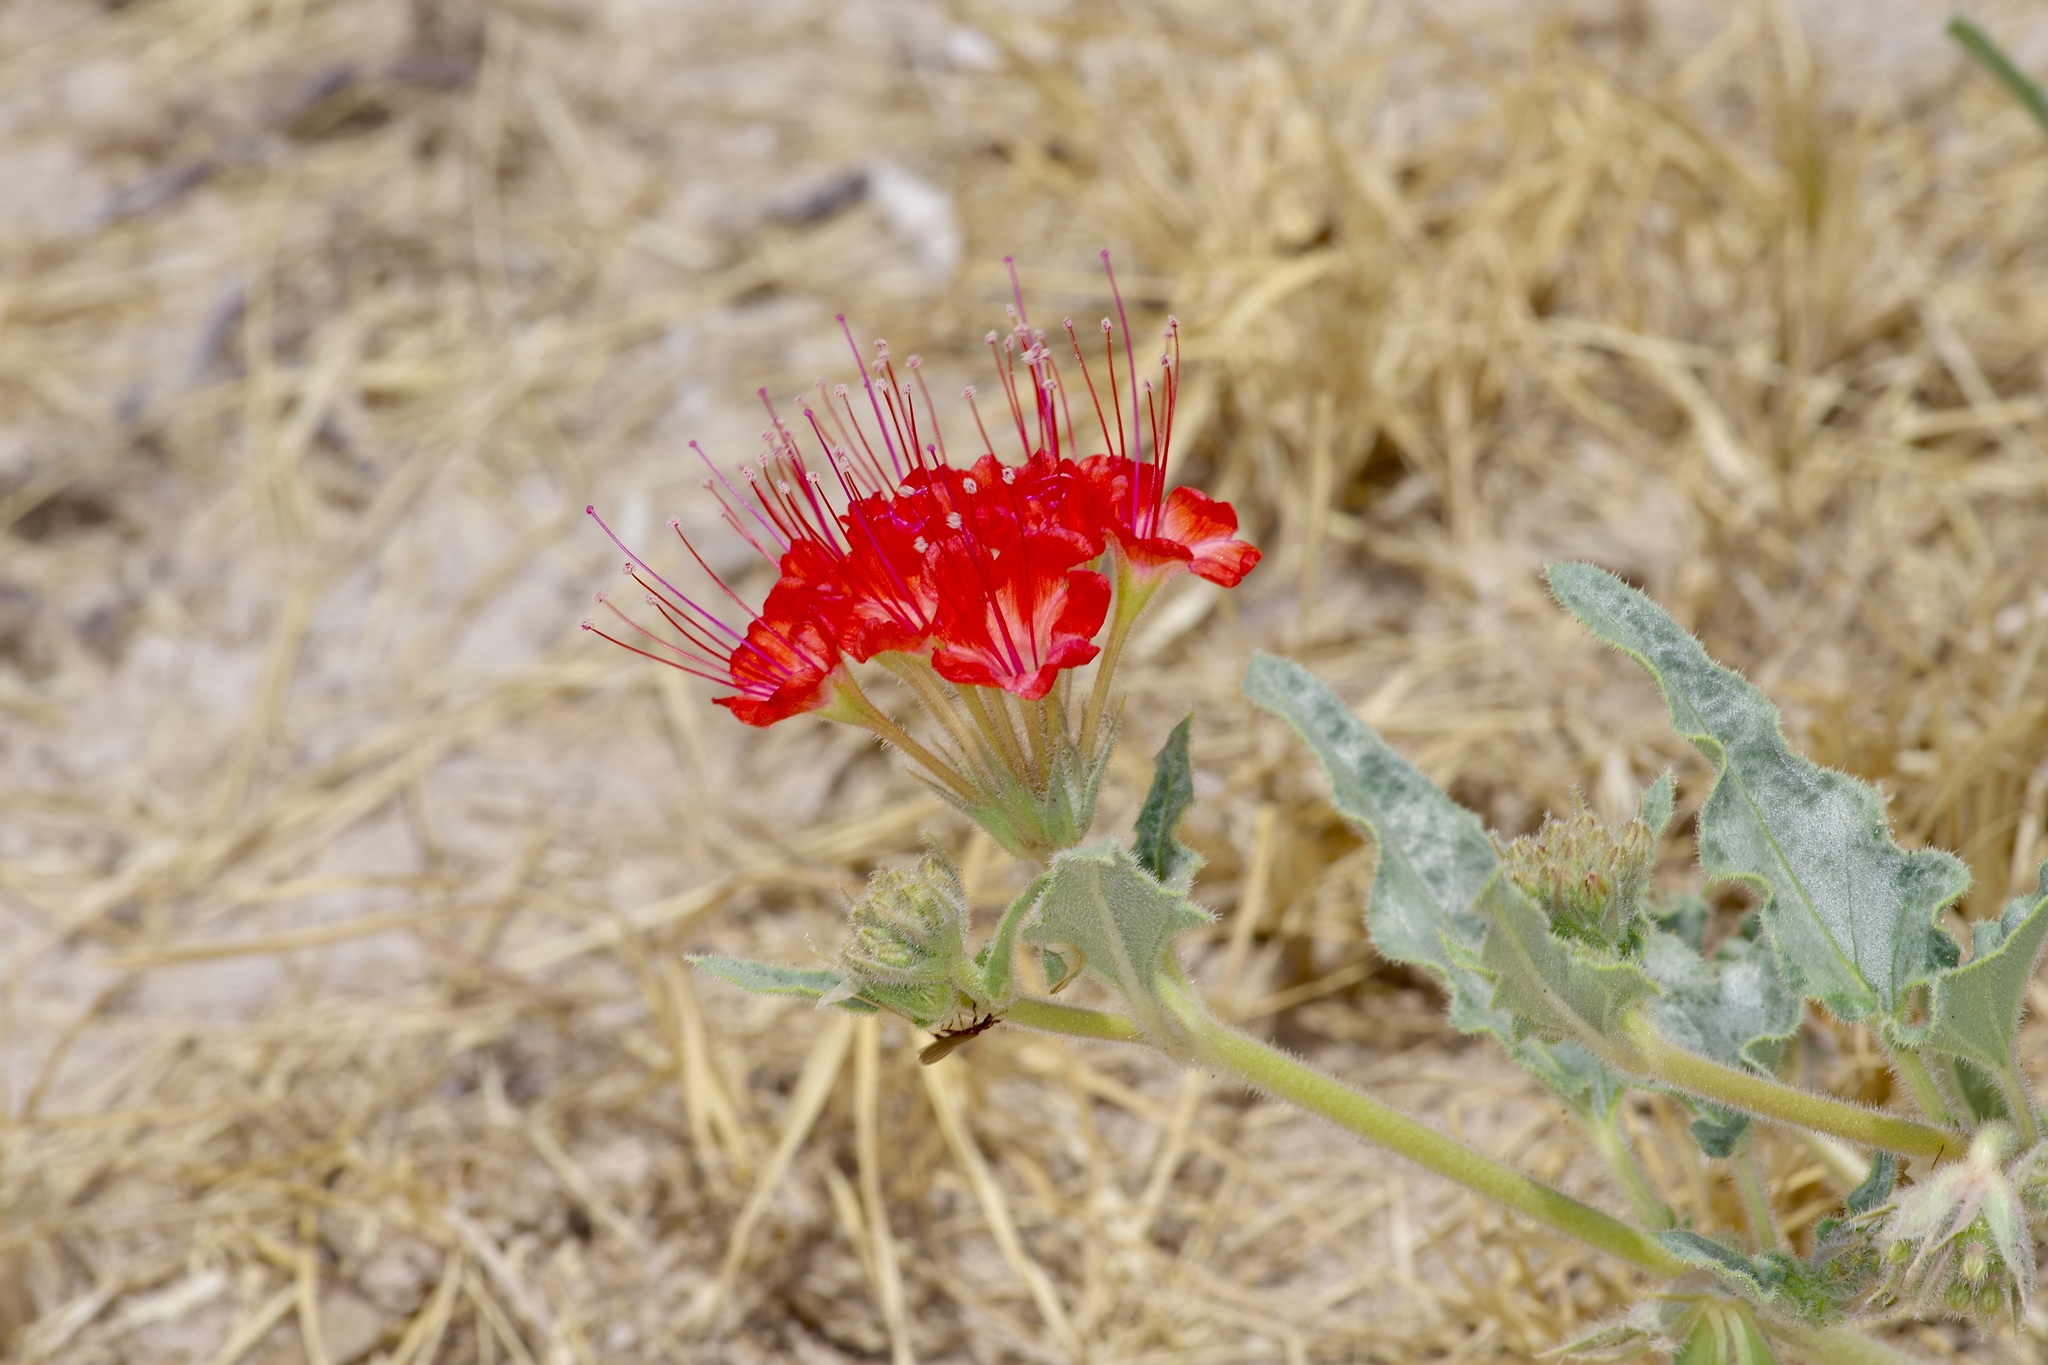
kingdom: Plantae
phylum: Tracheophyta
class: Magnoliopsida
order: Caryophyllales
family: Nyctaginaceae
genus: Nyctaginia
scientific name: Nyctaginia capitata
